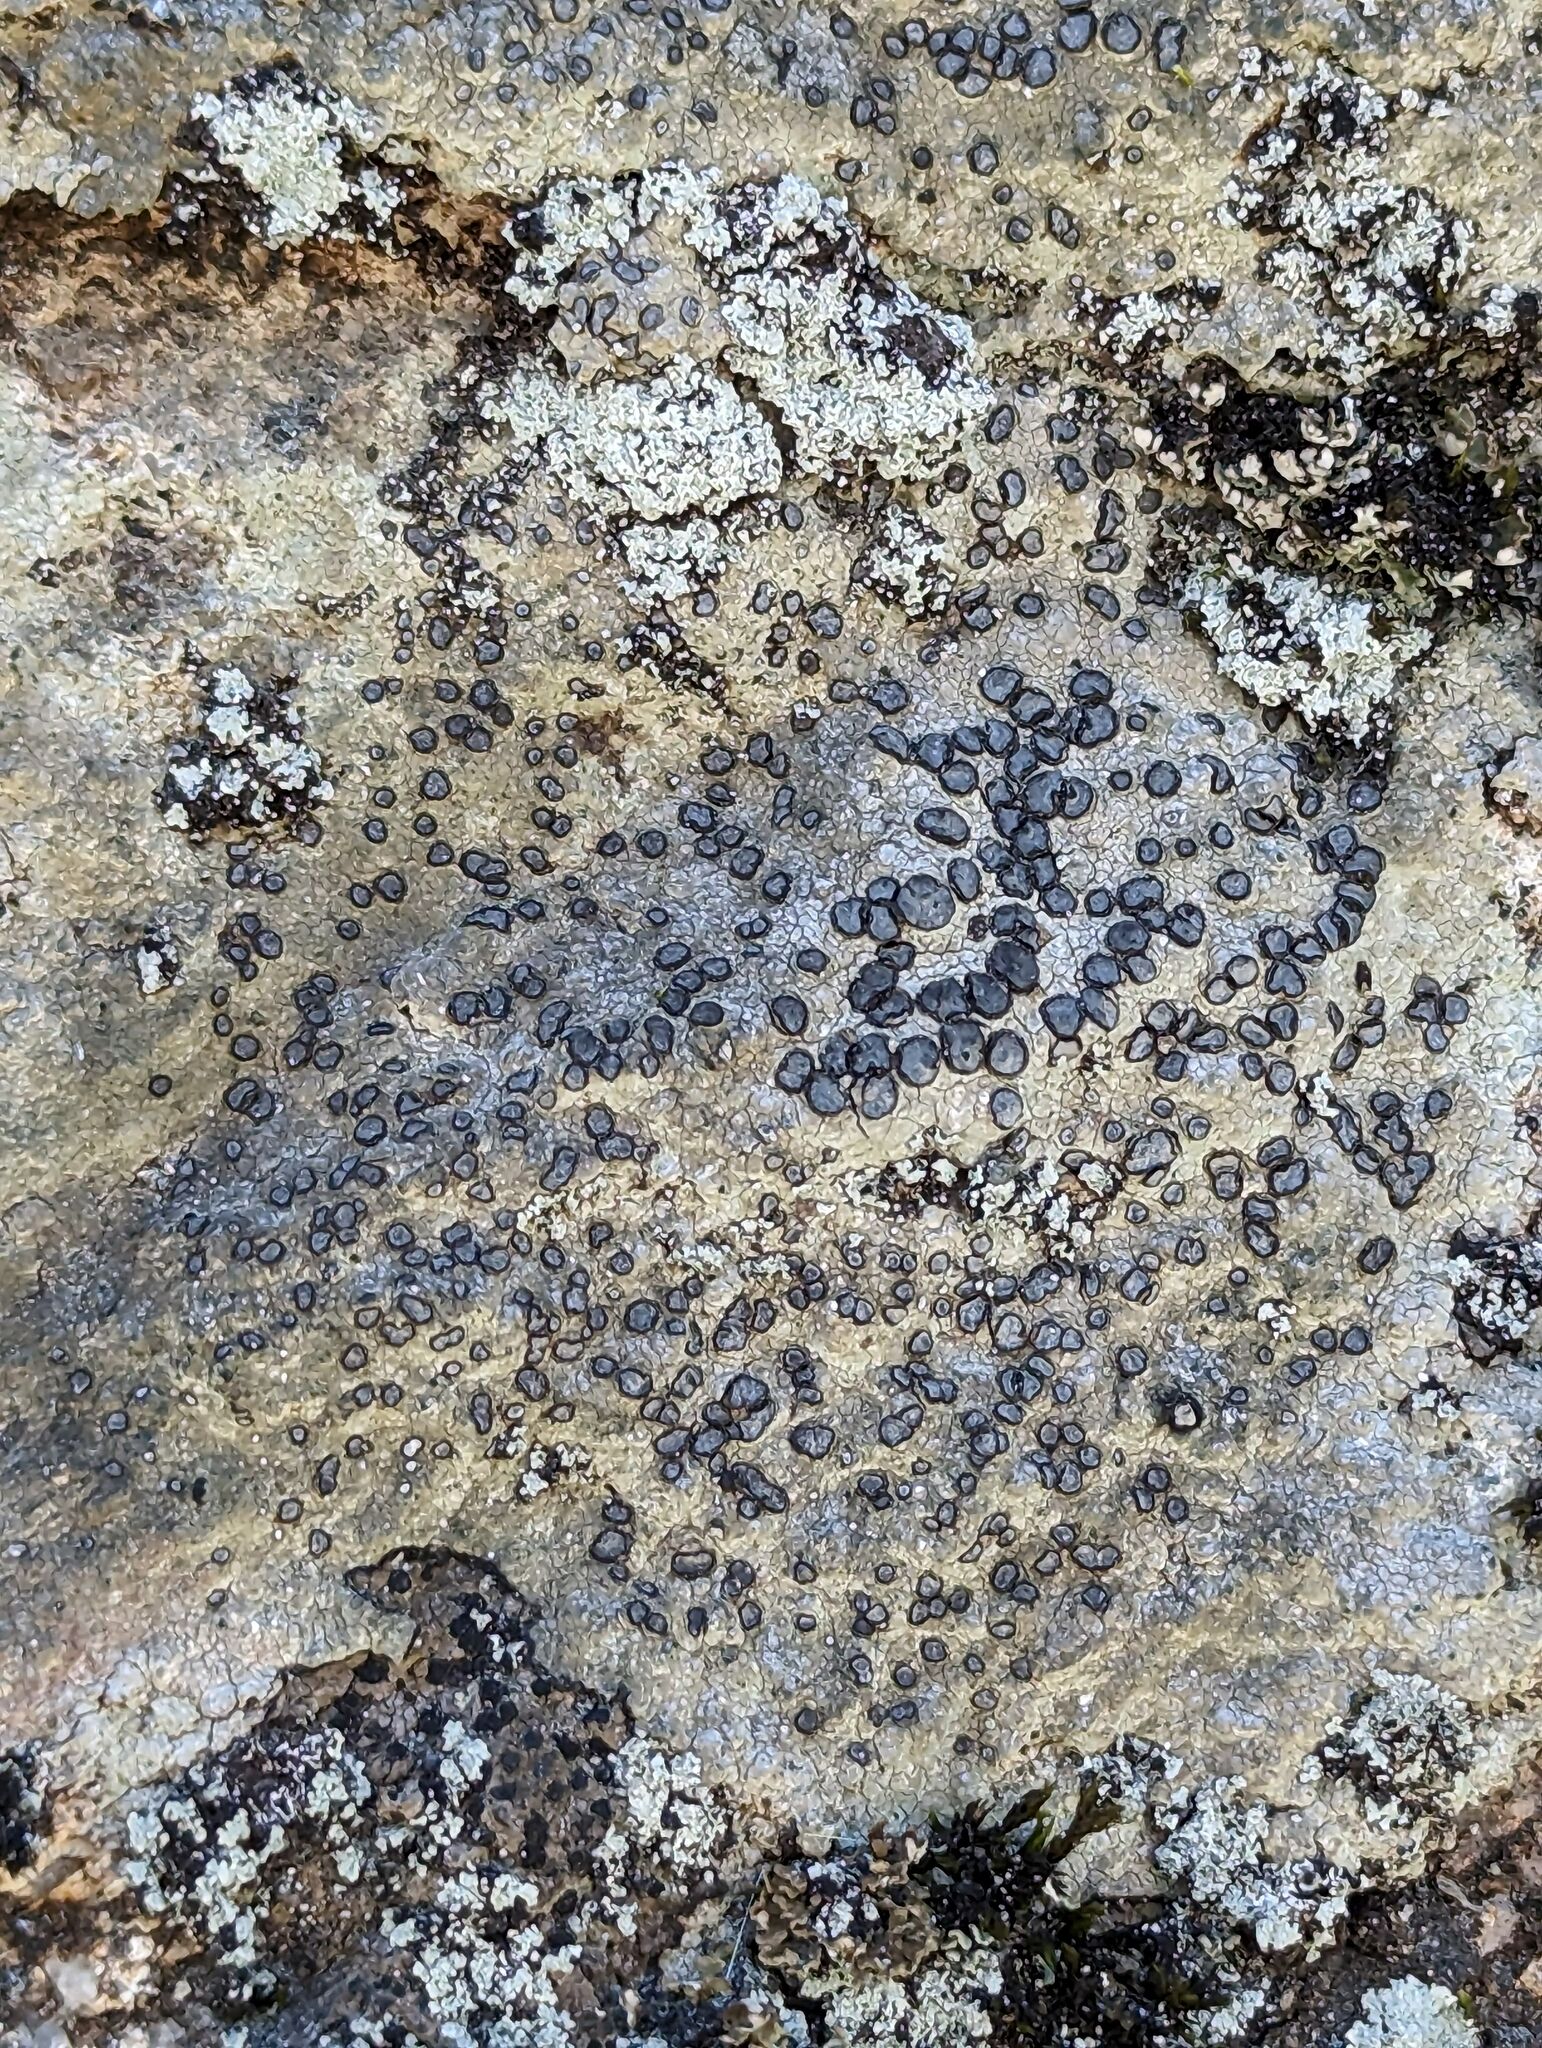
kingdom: Fungi
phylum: Ascomycota
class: Lecanoromycetes
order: Lecideales
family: Lecideaceae
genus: Porpidia
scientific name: Porpidia albocaerulescens
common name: Smokey-eyed boulder lichen
